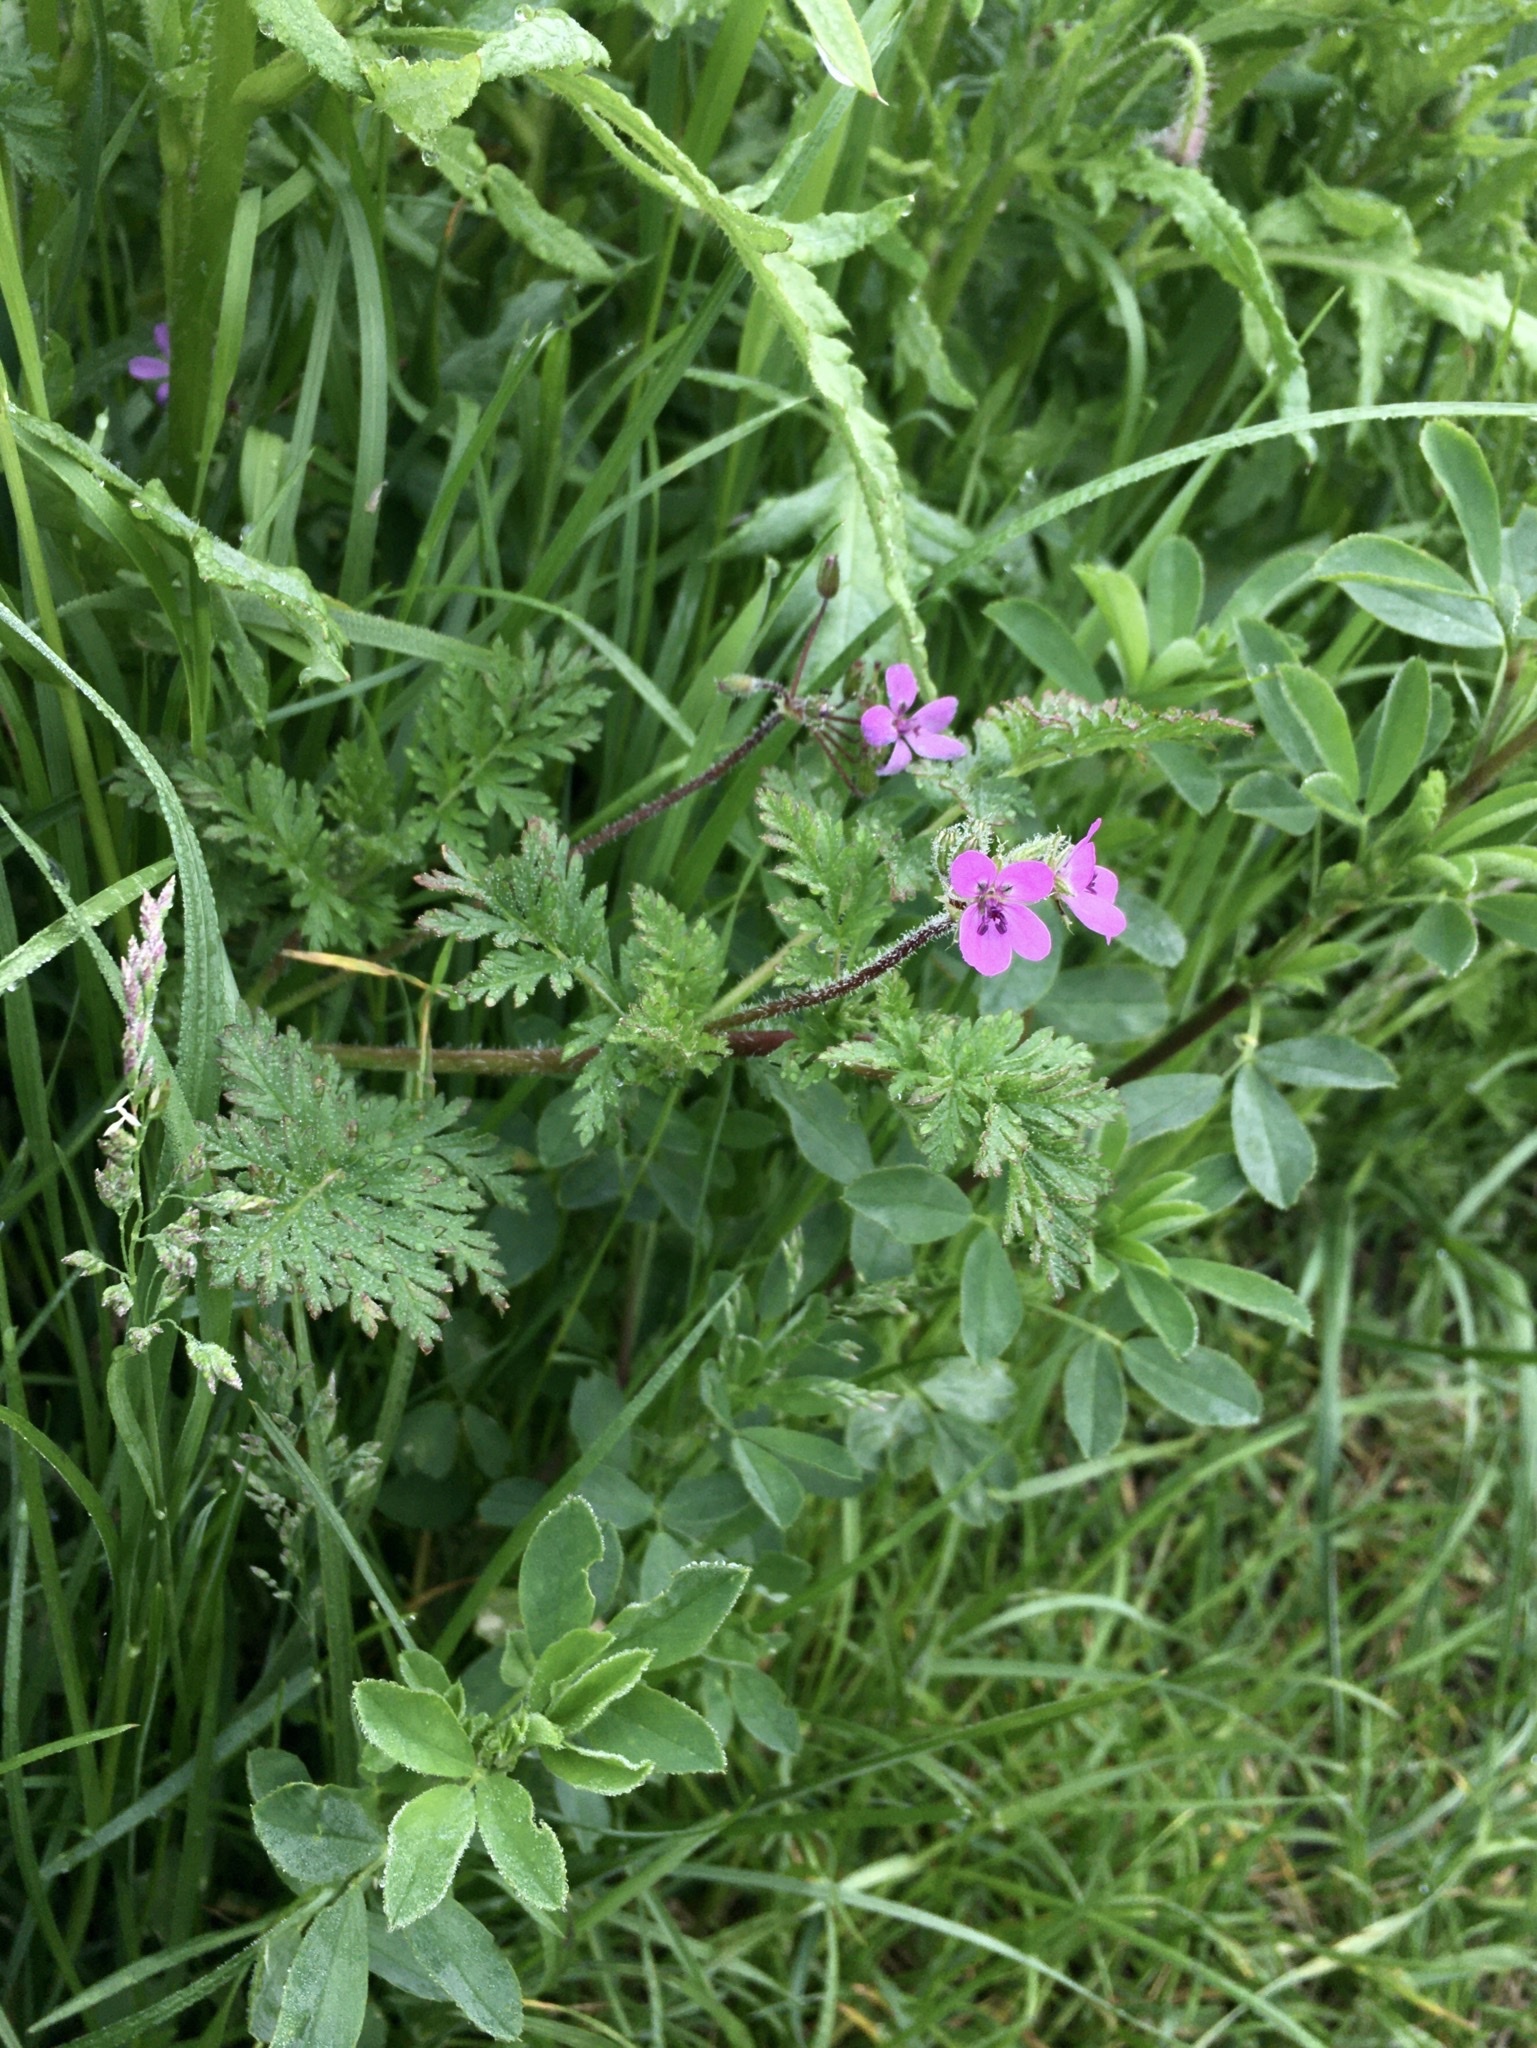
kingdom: Plantae
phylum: Tracheophyta
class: Magnoliopsida
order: Geraniales
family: Geraniaceae
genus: Erodium
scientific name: Erodium cicutarium
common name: Common stork's-bill
